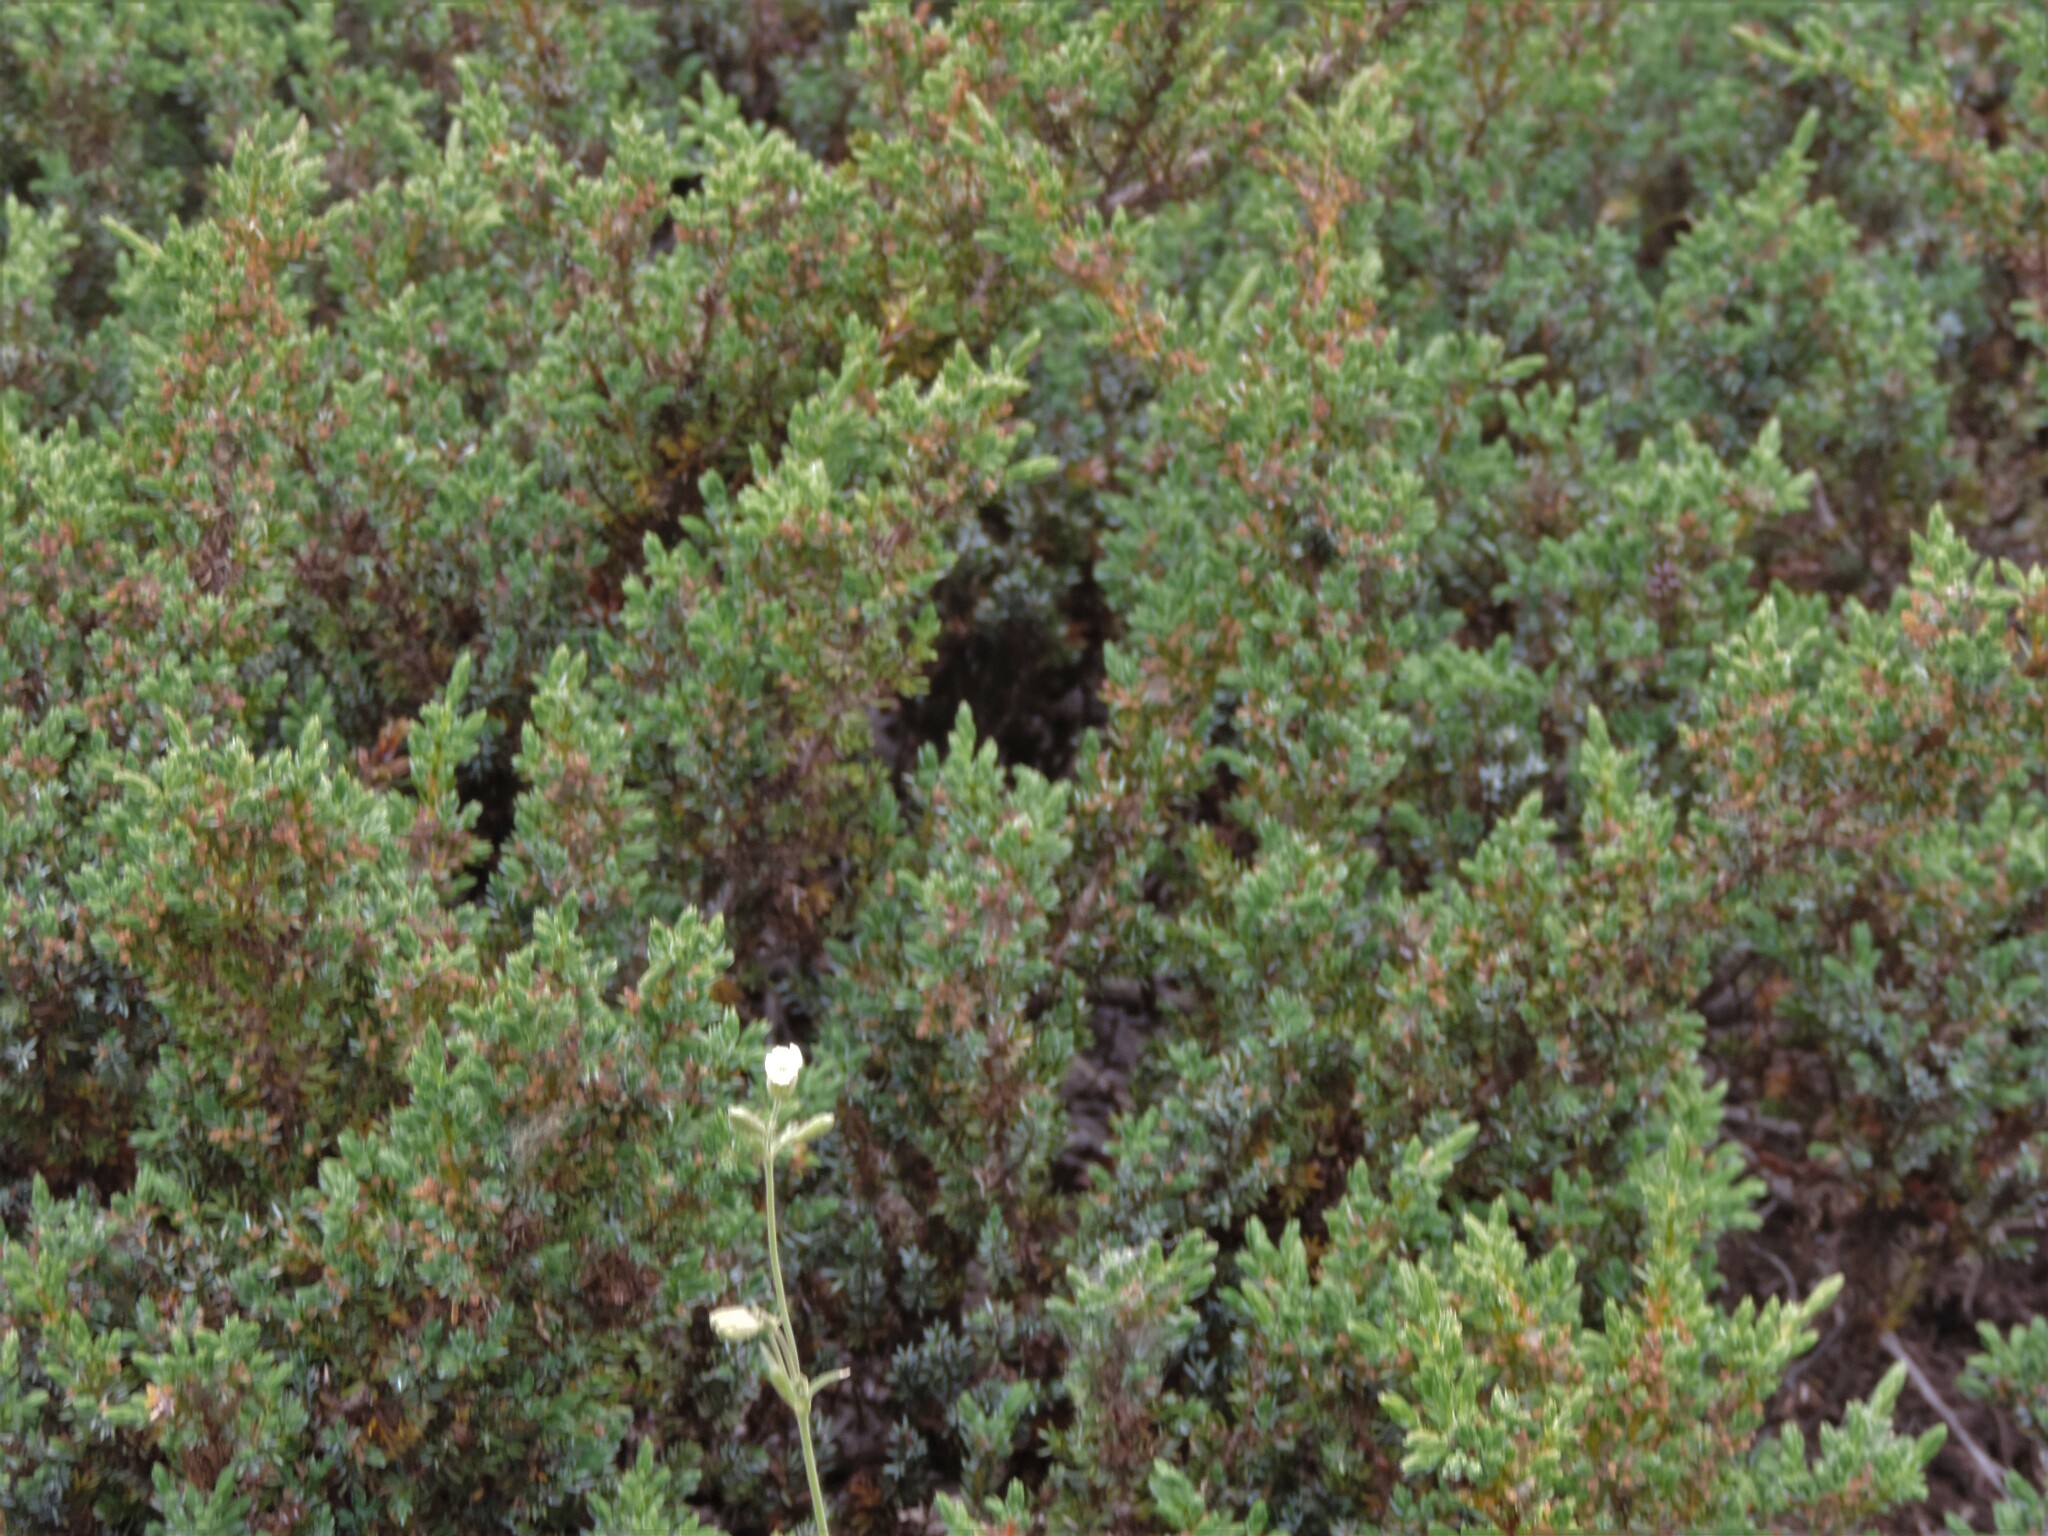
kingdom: Plantae
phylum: Tracheophyta
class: Pinopsida
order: Pinales
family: Cupressaceae
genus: Juniperus
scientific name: Juniperus communis
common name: Common juniper
